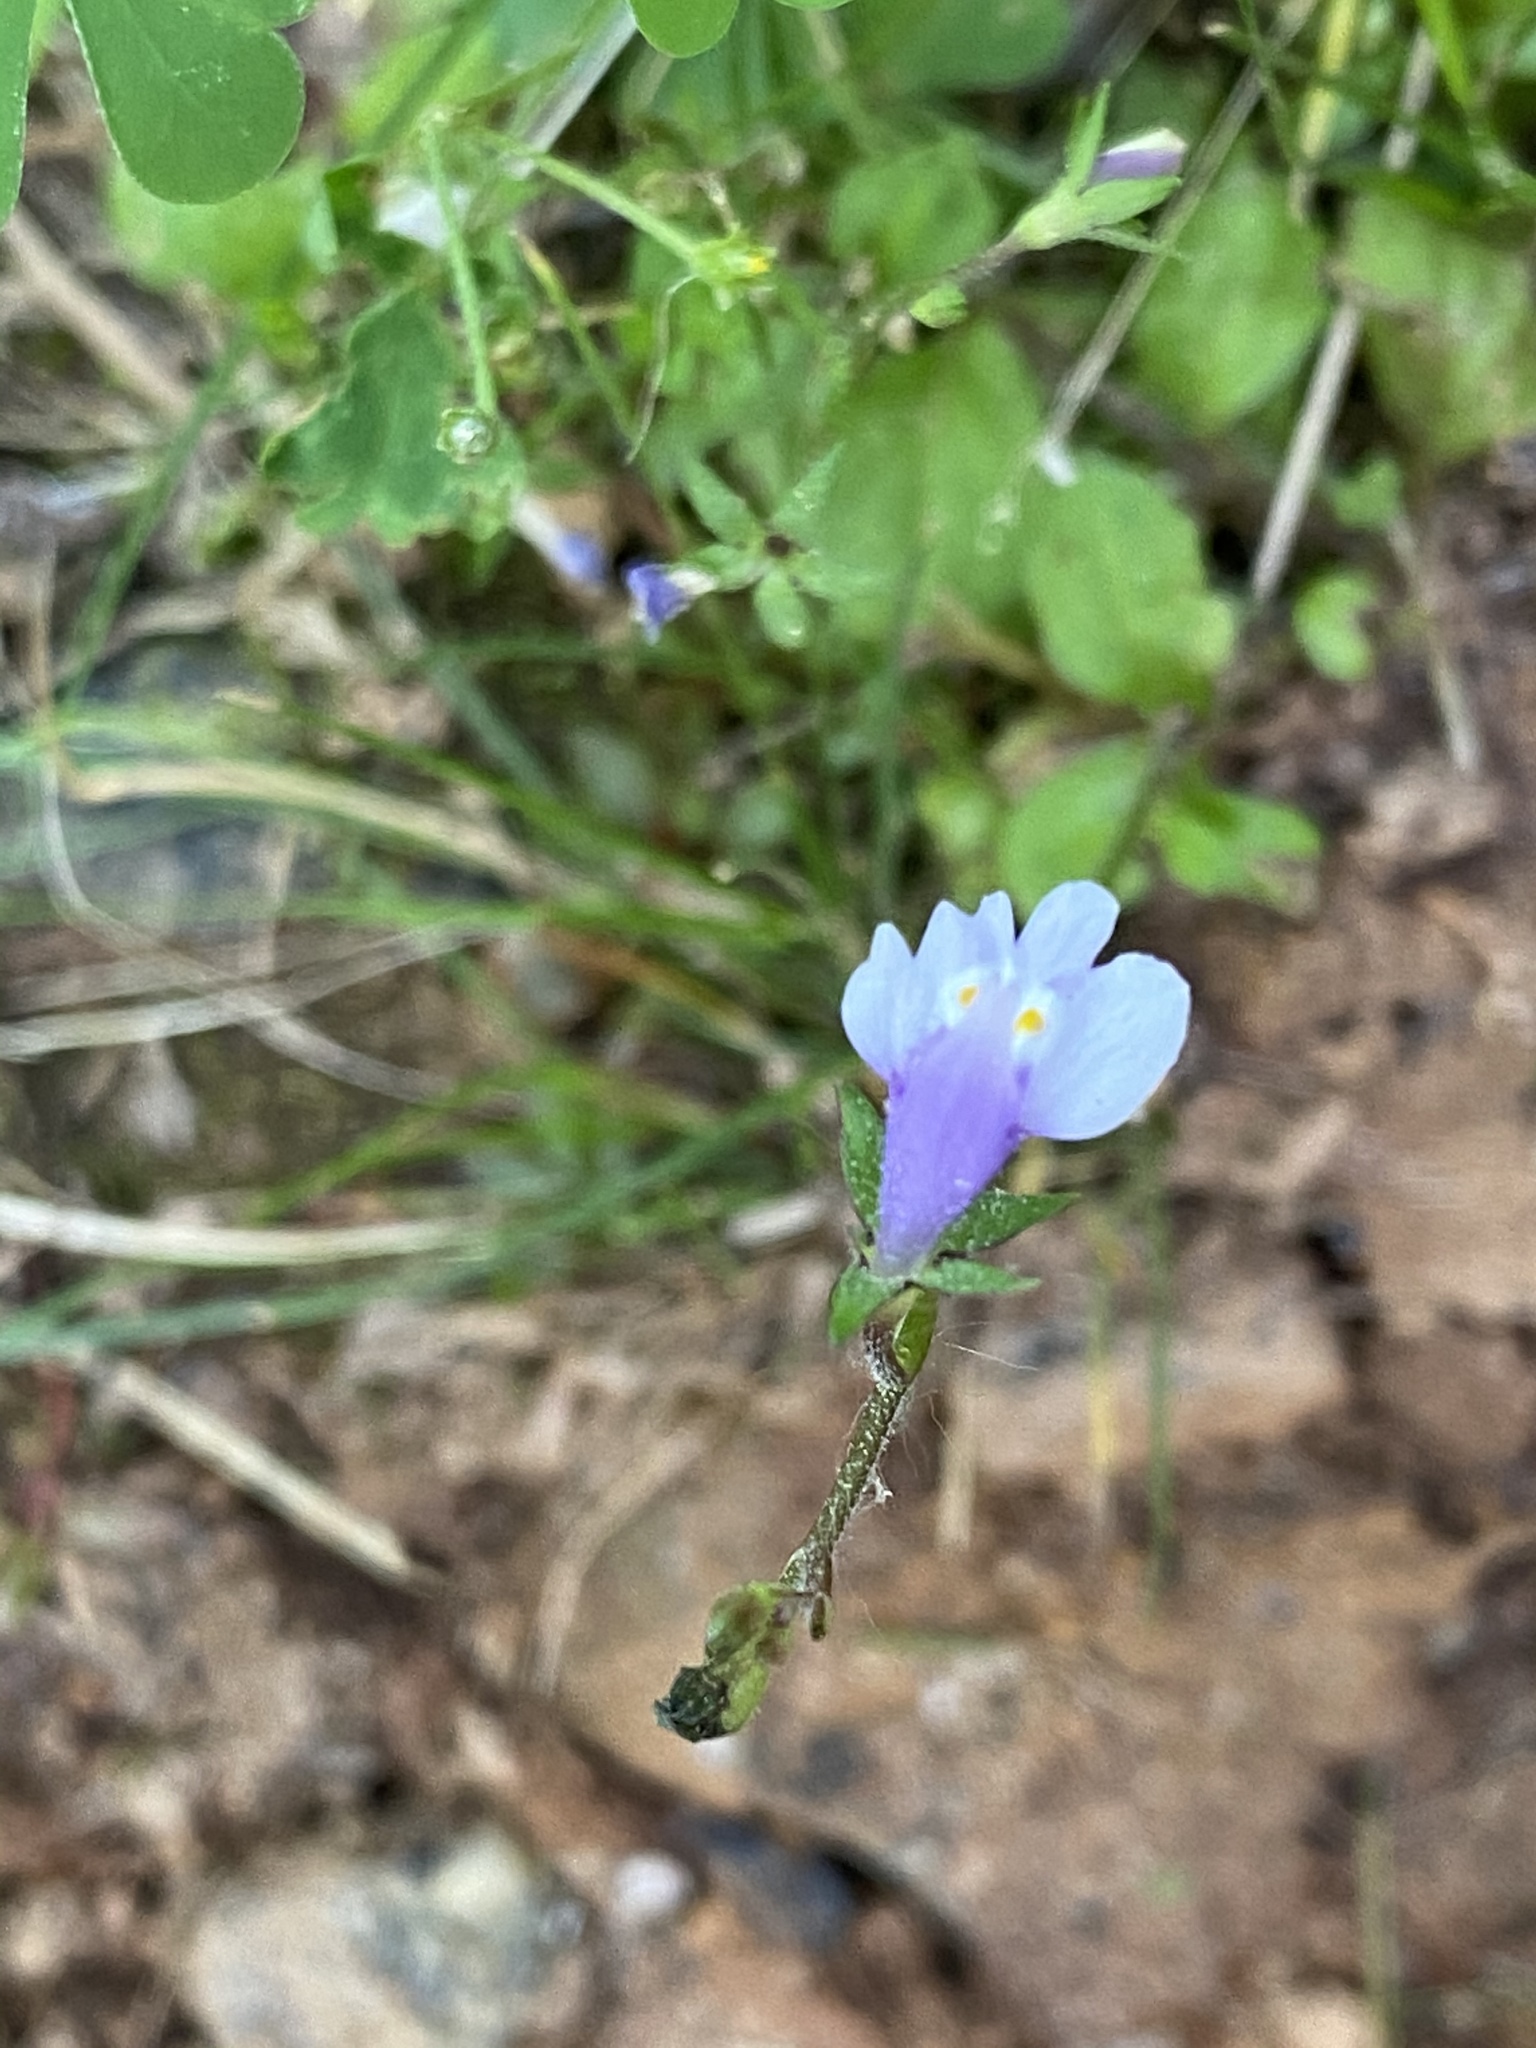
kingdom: Plantae
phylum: Tracheophyta
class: Magnoliopsida
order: Lamiales
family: Mazaceae
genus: Mazus
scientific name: Mazus pumilus
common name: Japanese mazus
